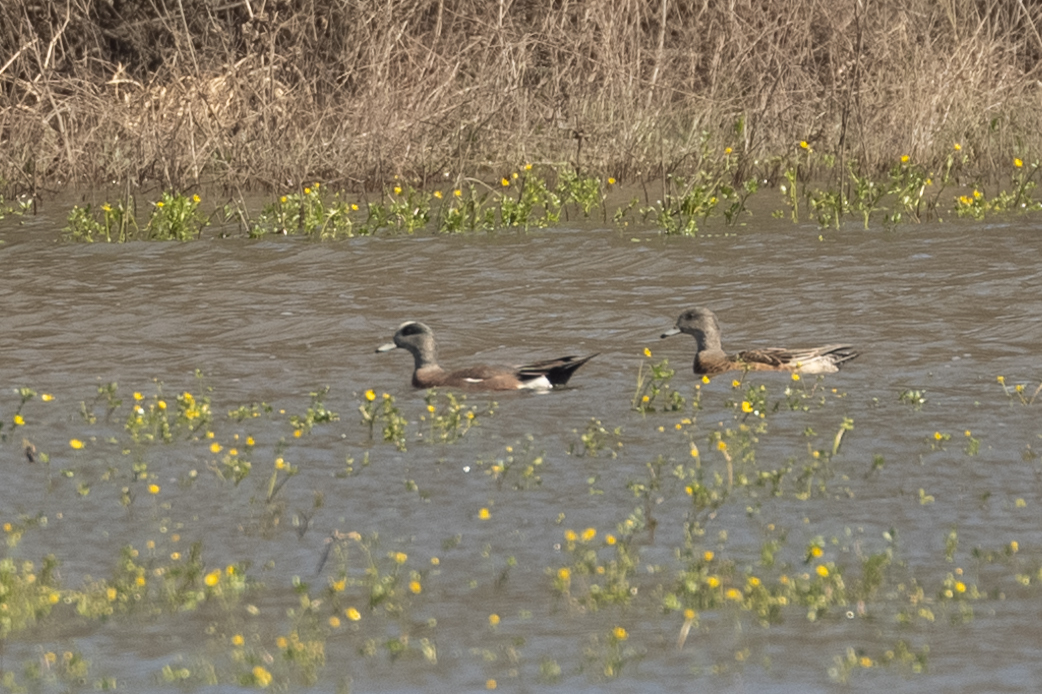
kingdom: Animalia
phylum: Chordata
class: Aves
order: Anseriformes
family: Anatidae
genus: Mareca
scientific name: Mareca americana
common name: American wigeon
